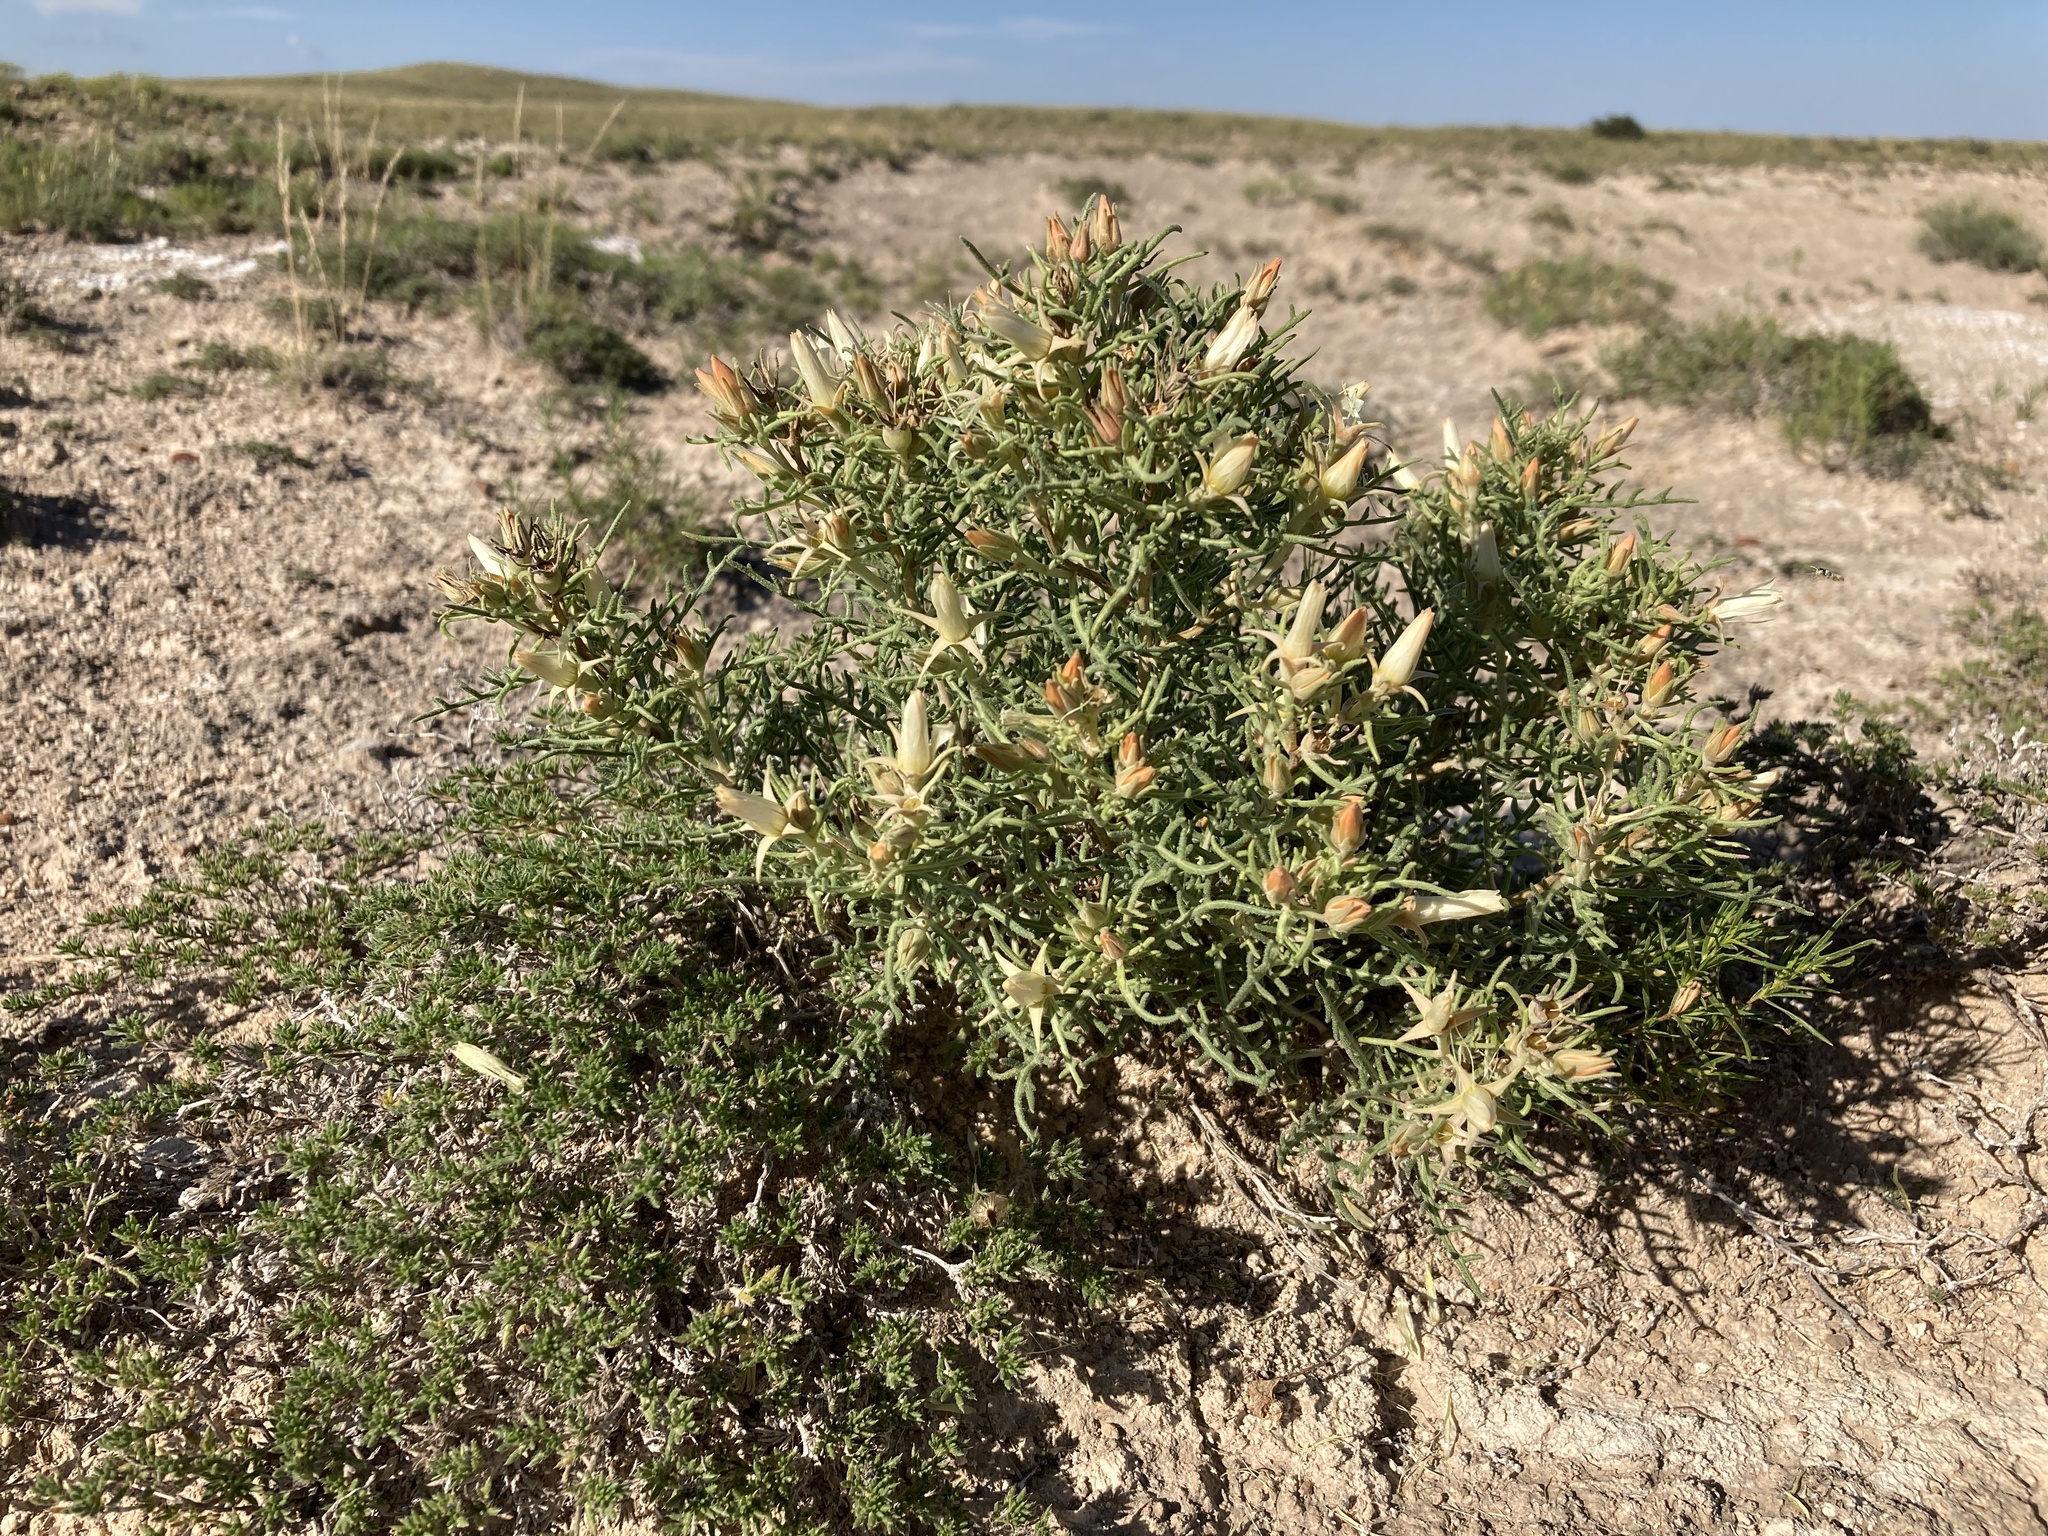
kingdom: Plantae
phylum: Tracheophyta
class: Magnoliopsida
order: Cornales
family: Loasaceae
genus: Mentzelia
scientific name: Mentzelia humilis
